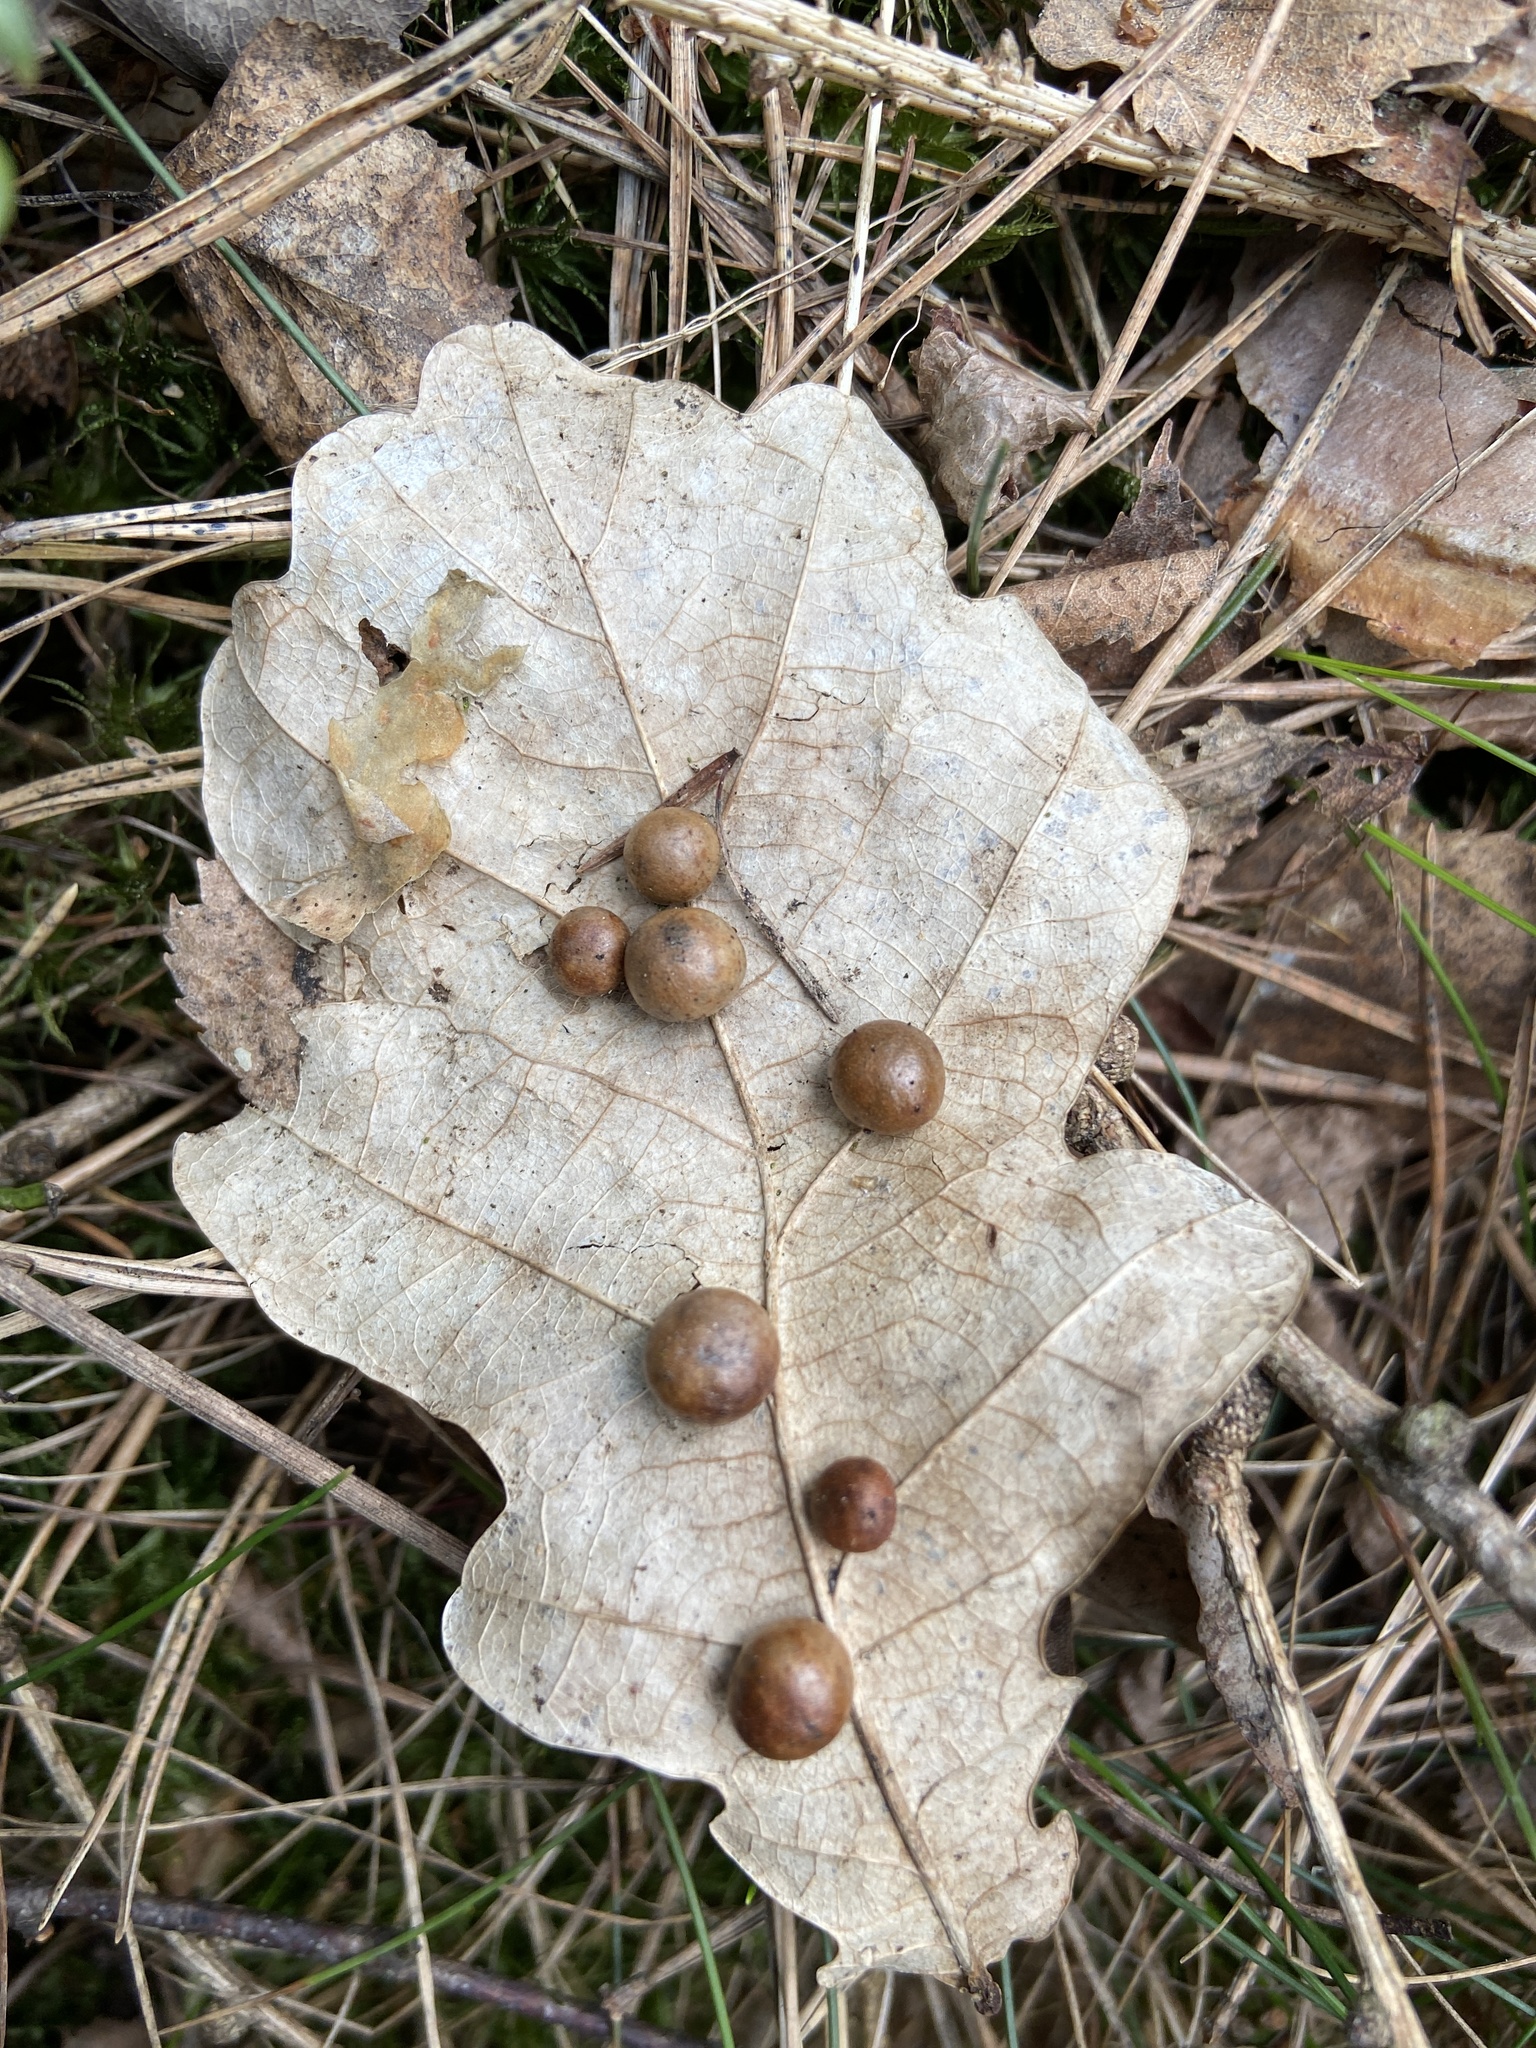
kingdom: Animalia
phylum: Arthropoda
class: Insecta
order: Hymenoptera
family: Cynipidae
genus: Cynips
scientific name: Cynips divisa
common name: Red currant gall
